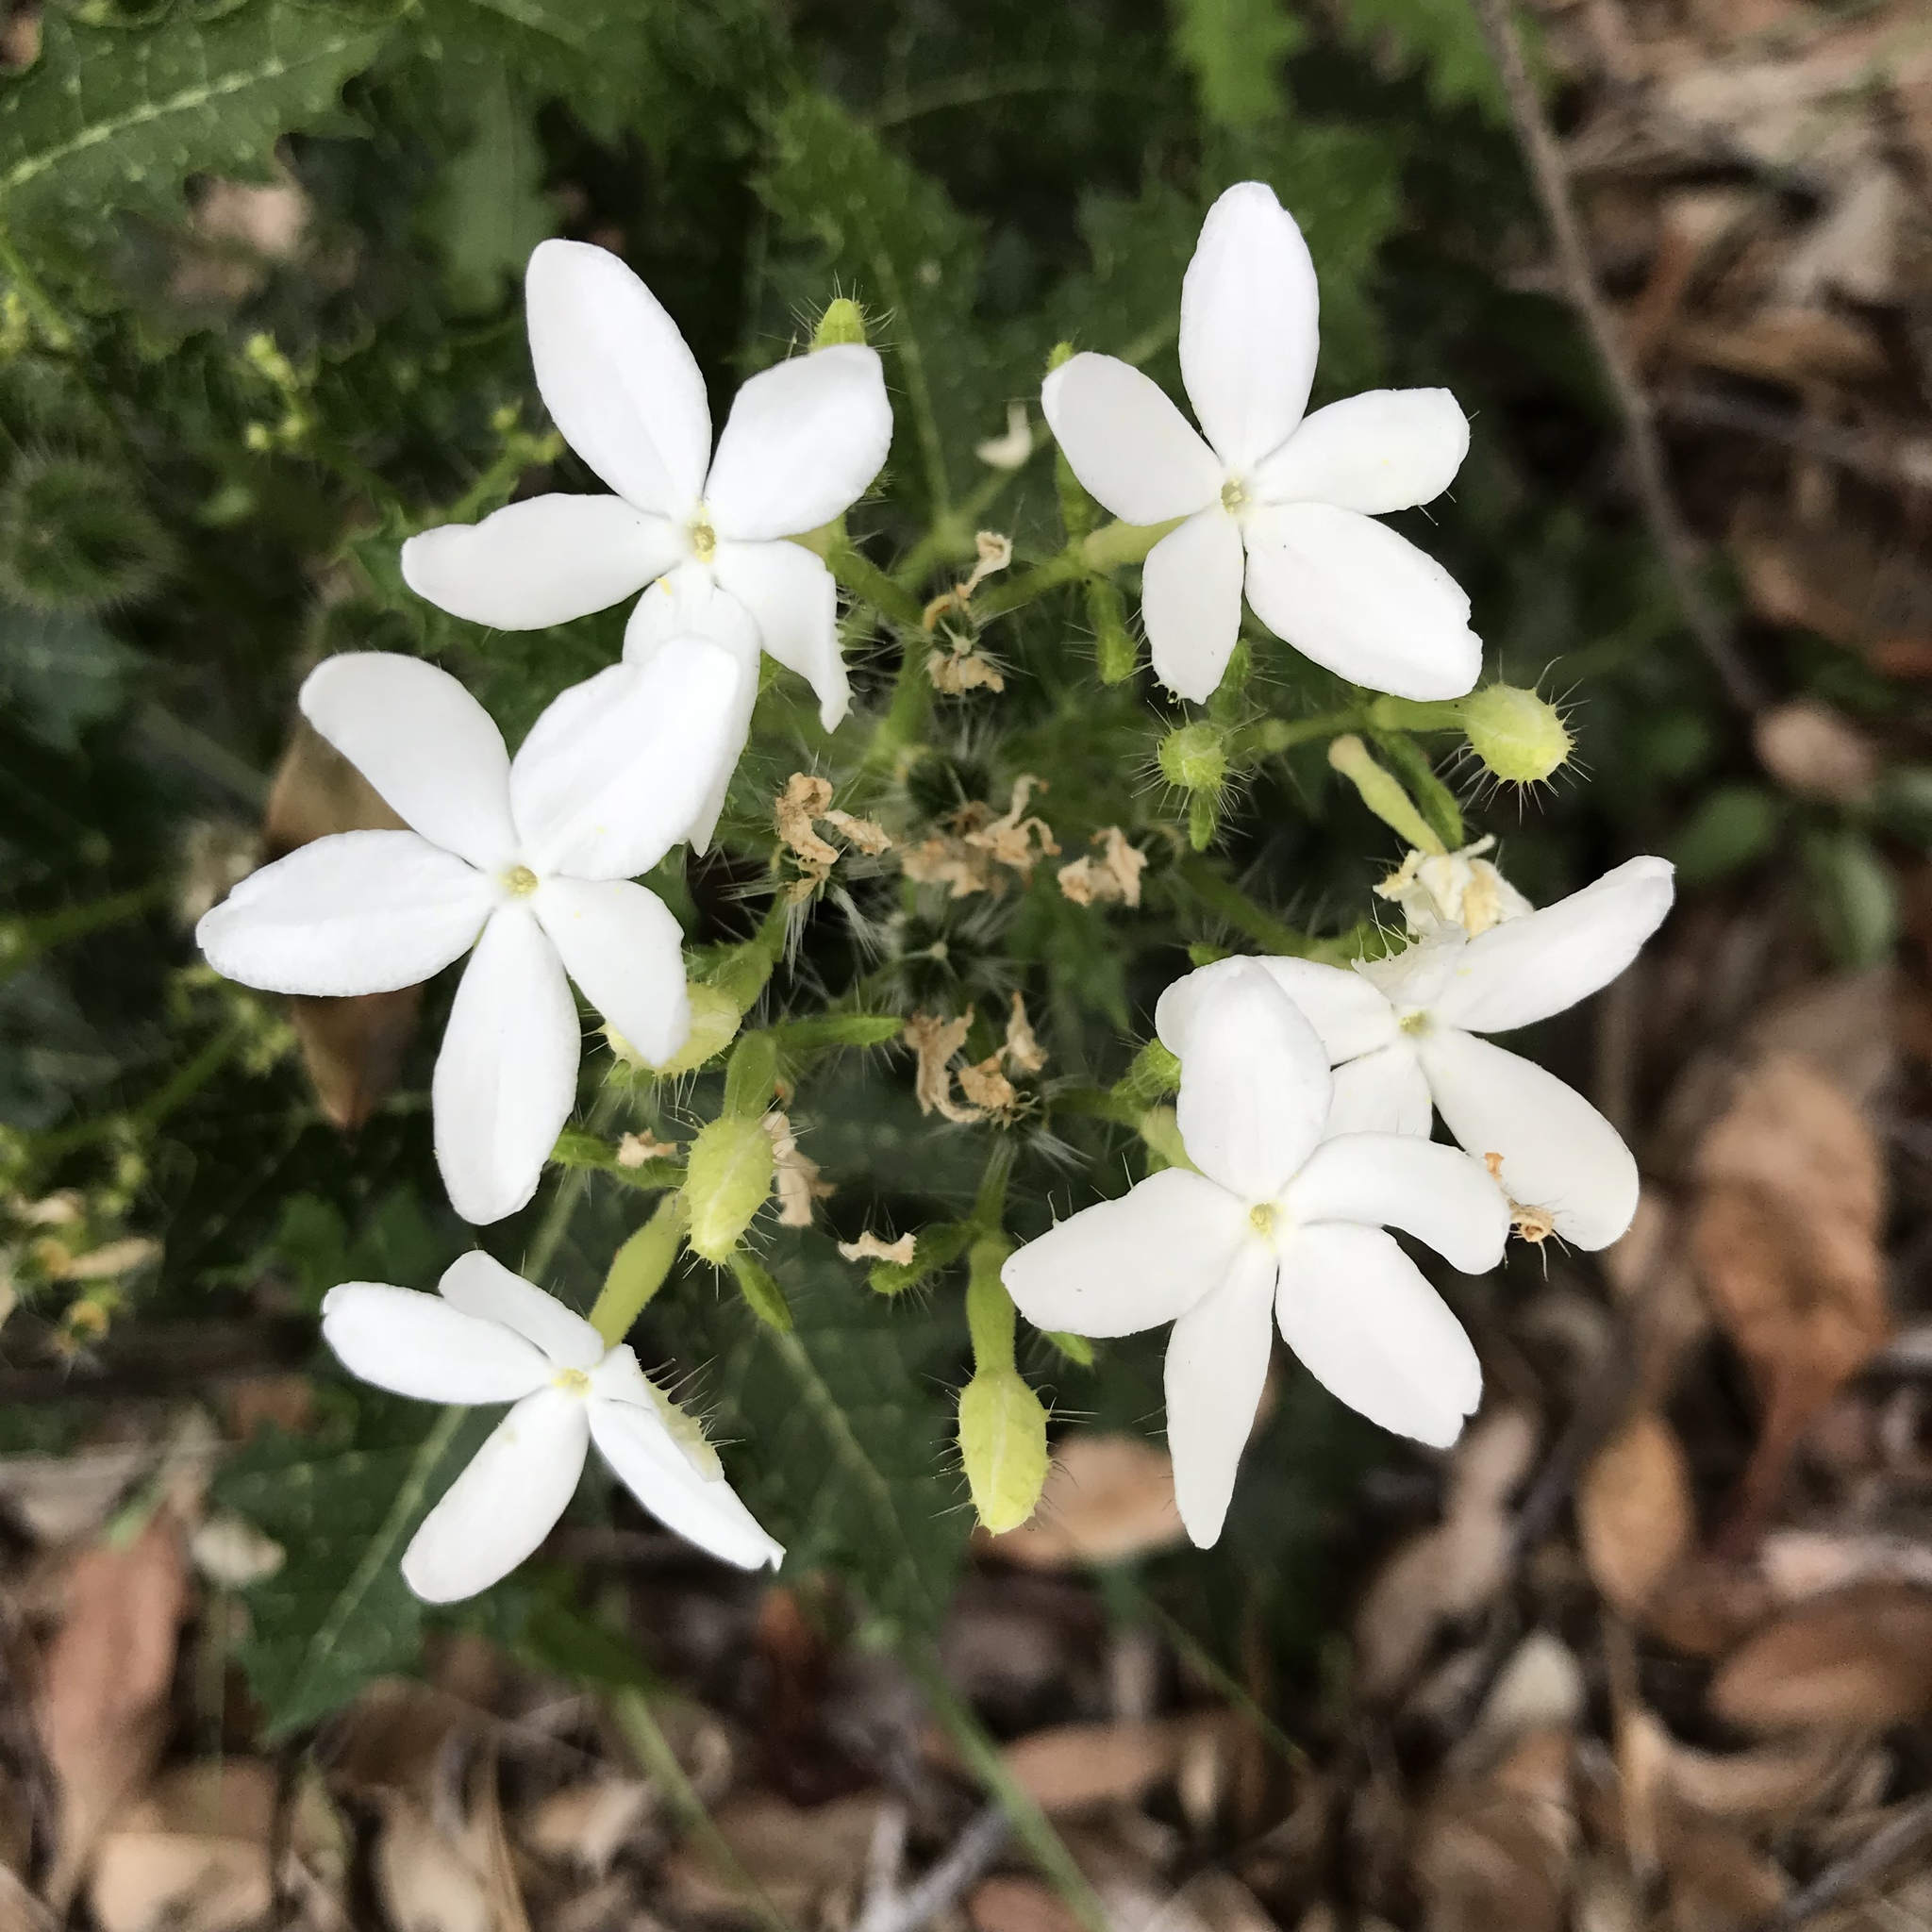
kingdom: Plantae
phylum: Tracheophyta
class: Magnoliopsida
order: Malpighiales
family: Euphorbiaceae
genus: Cnidoscolus
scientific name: Cnidoscolus stimulosus
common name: Bull-nettle
